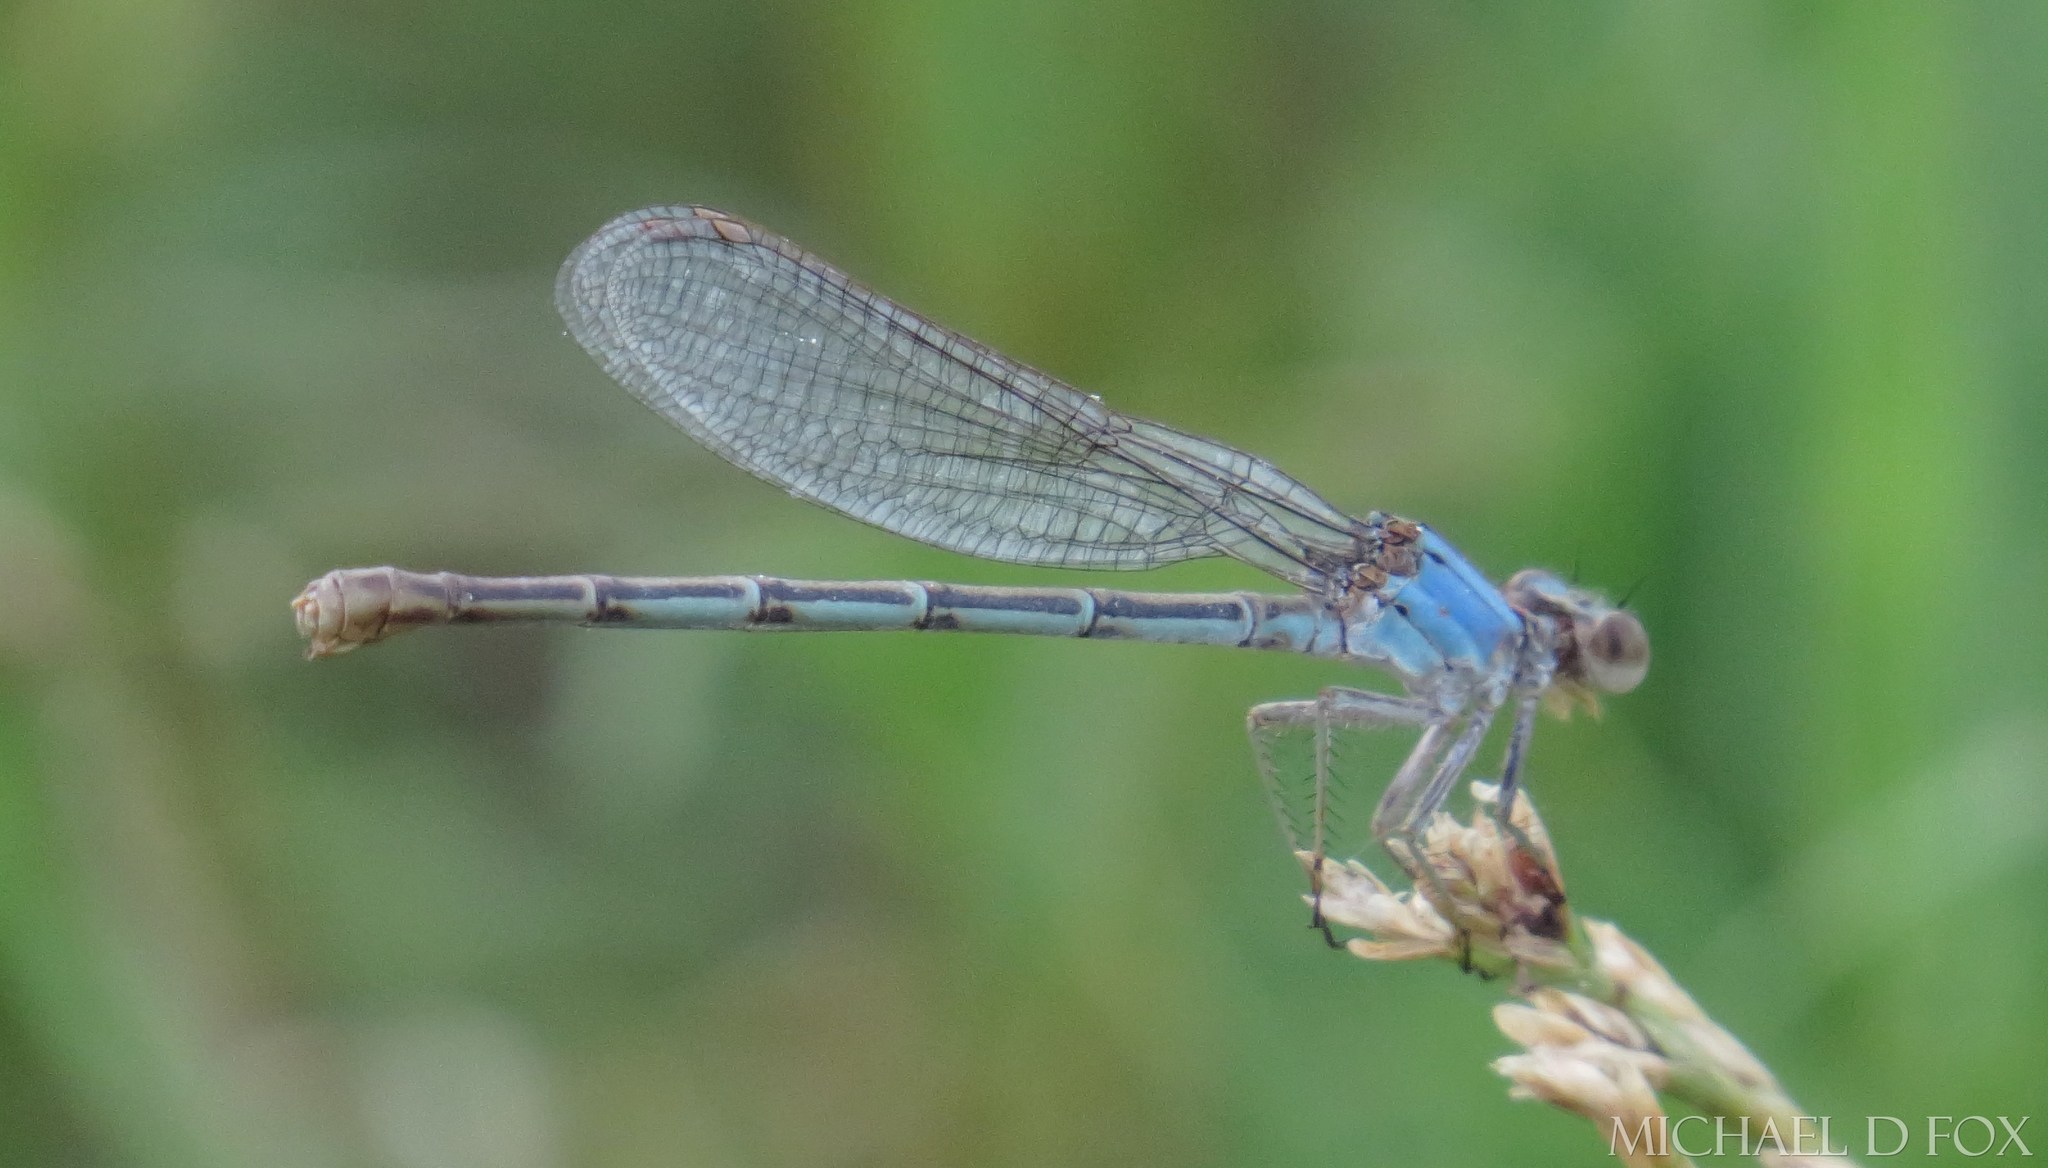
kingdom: Animalia
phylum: Arthropoda
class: Insecta
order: Odonata
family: Coenagrionidae
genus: Argia
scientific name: Argia moesta
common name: Powdered dancer
